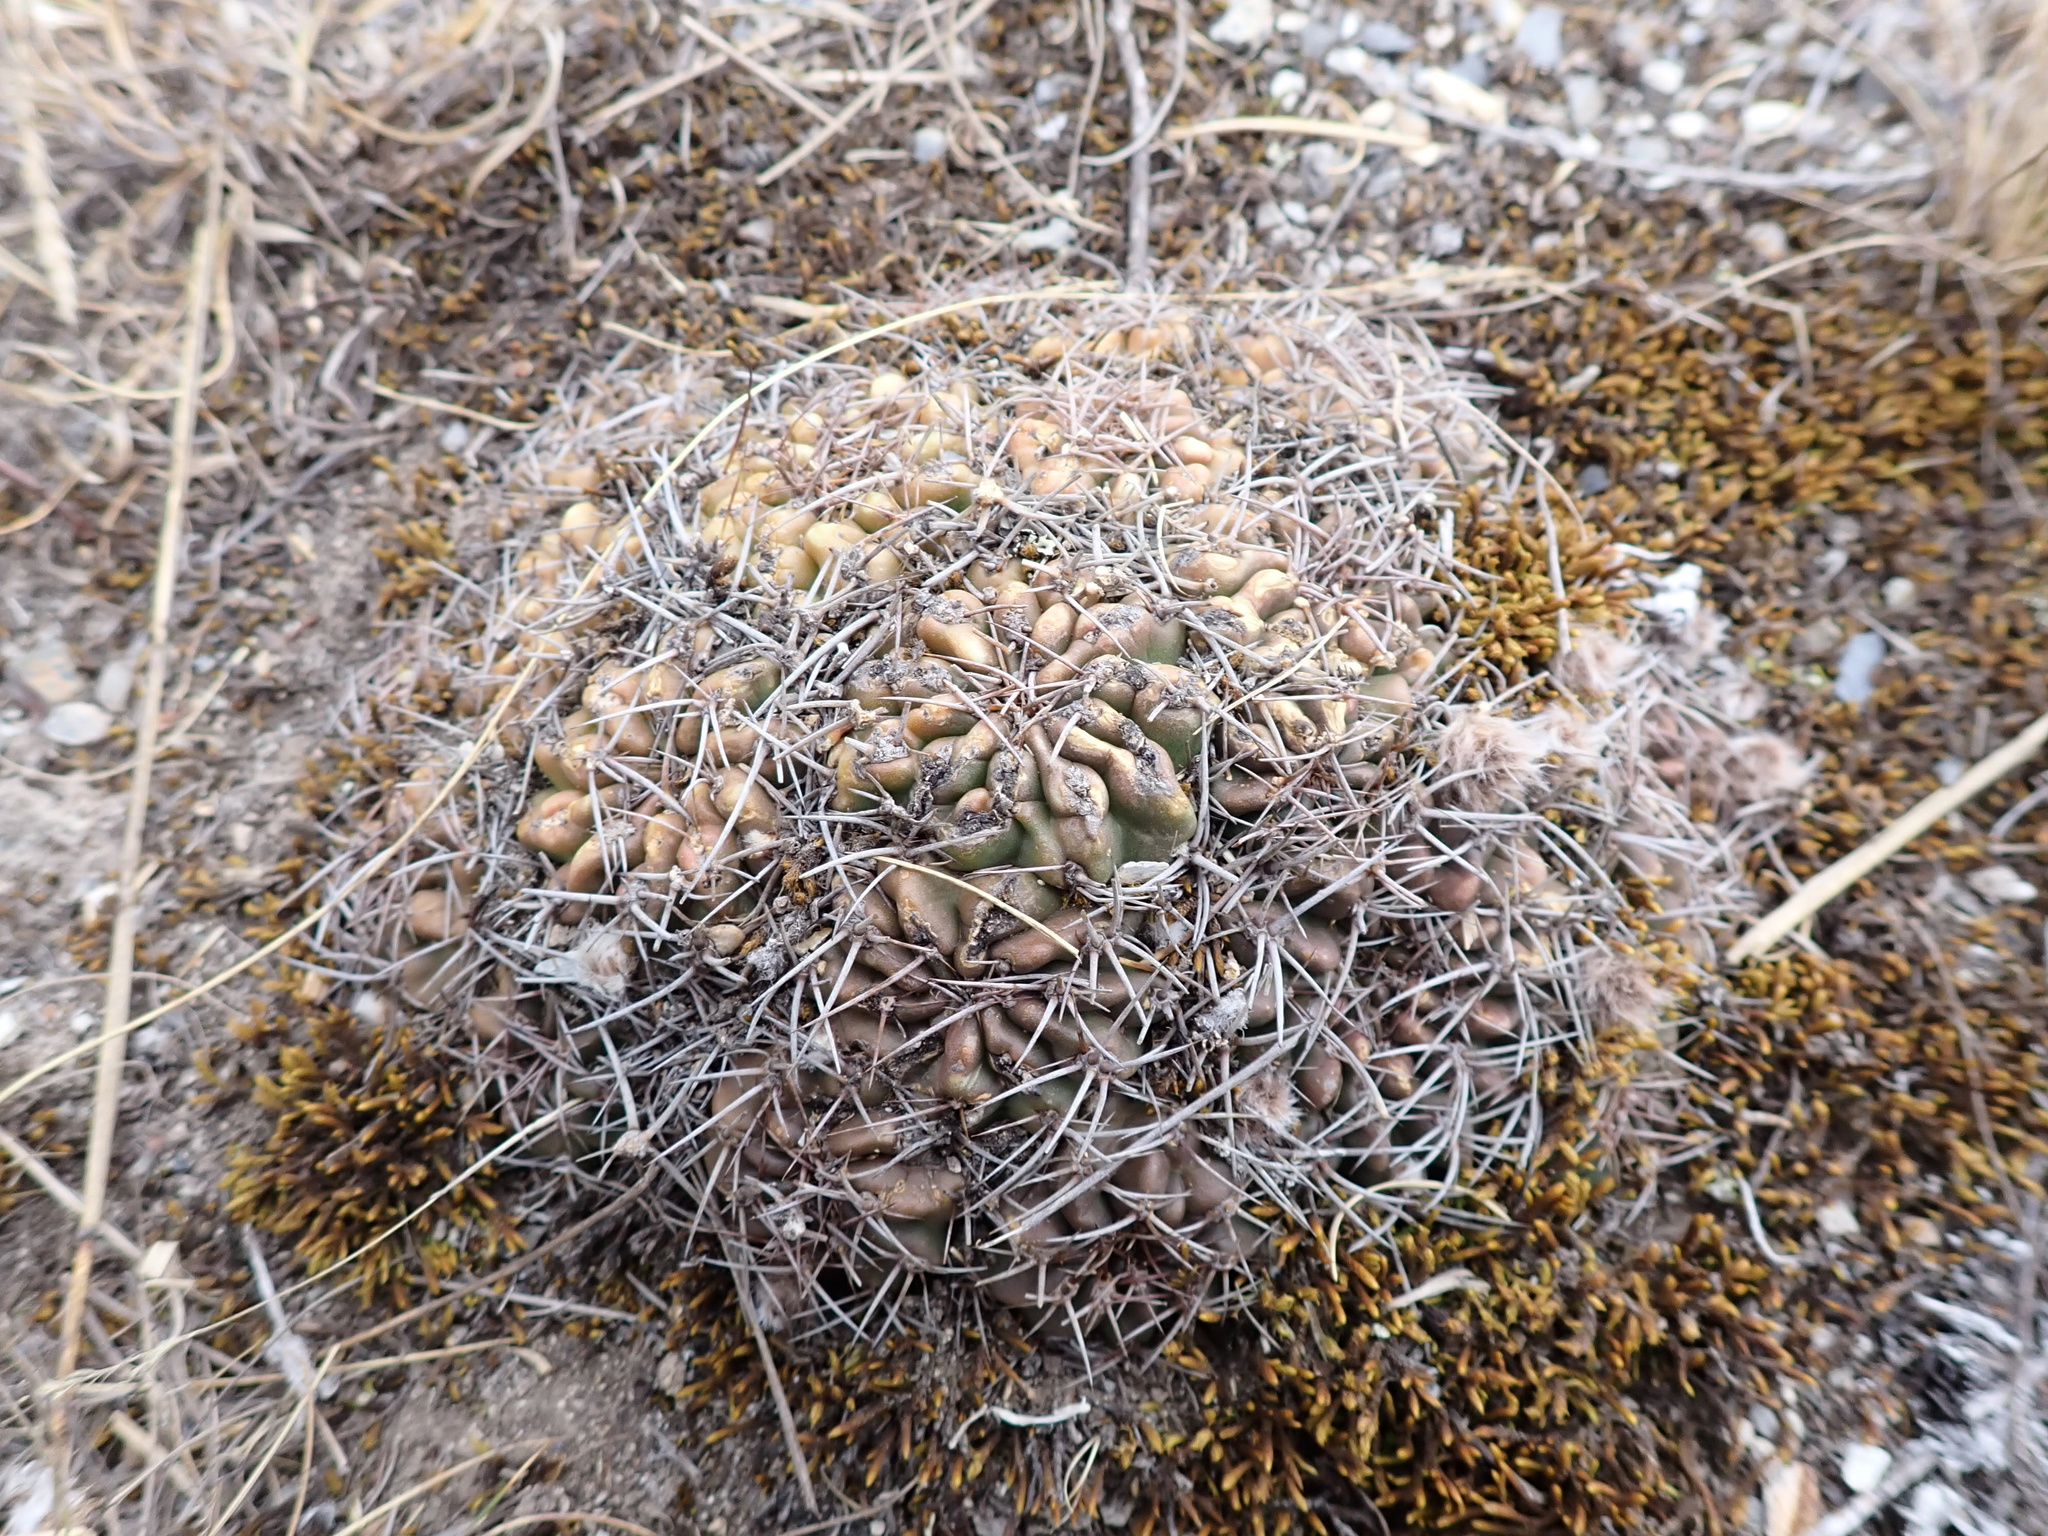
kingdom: Plantae
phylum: Tracheophyta
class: Magnoliopsida
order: Caryophyllales
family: Cactaceae
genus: Lobivia
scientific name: Lobivia hertrichiana
